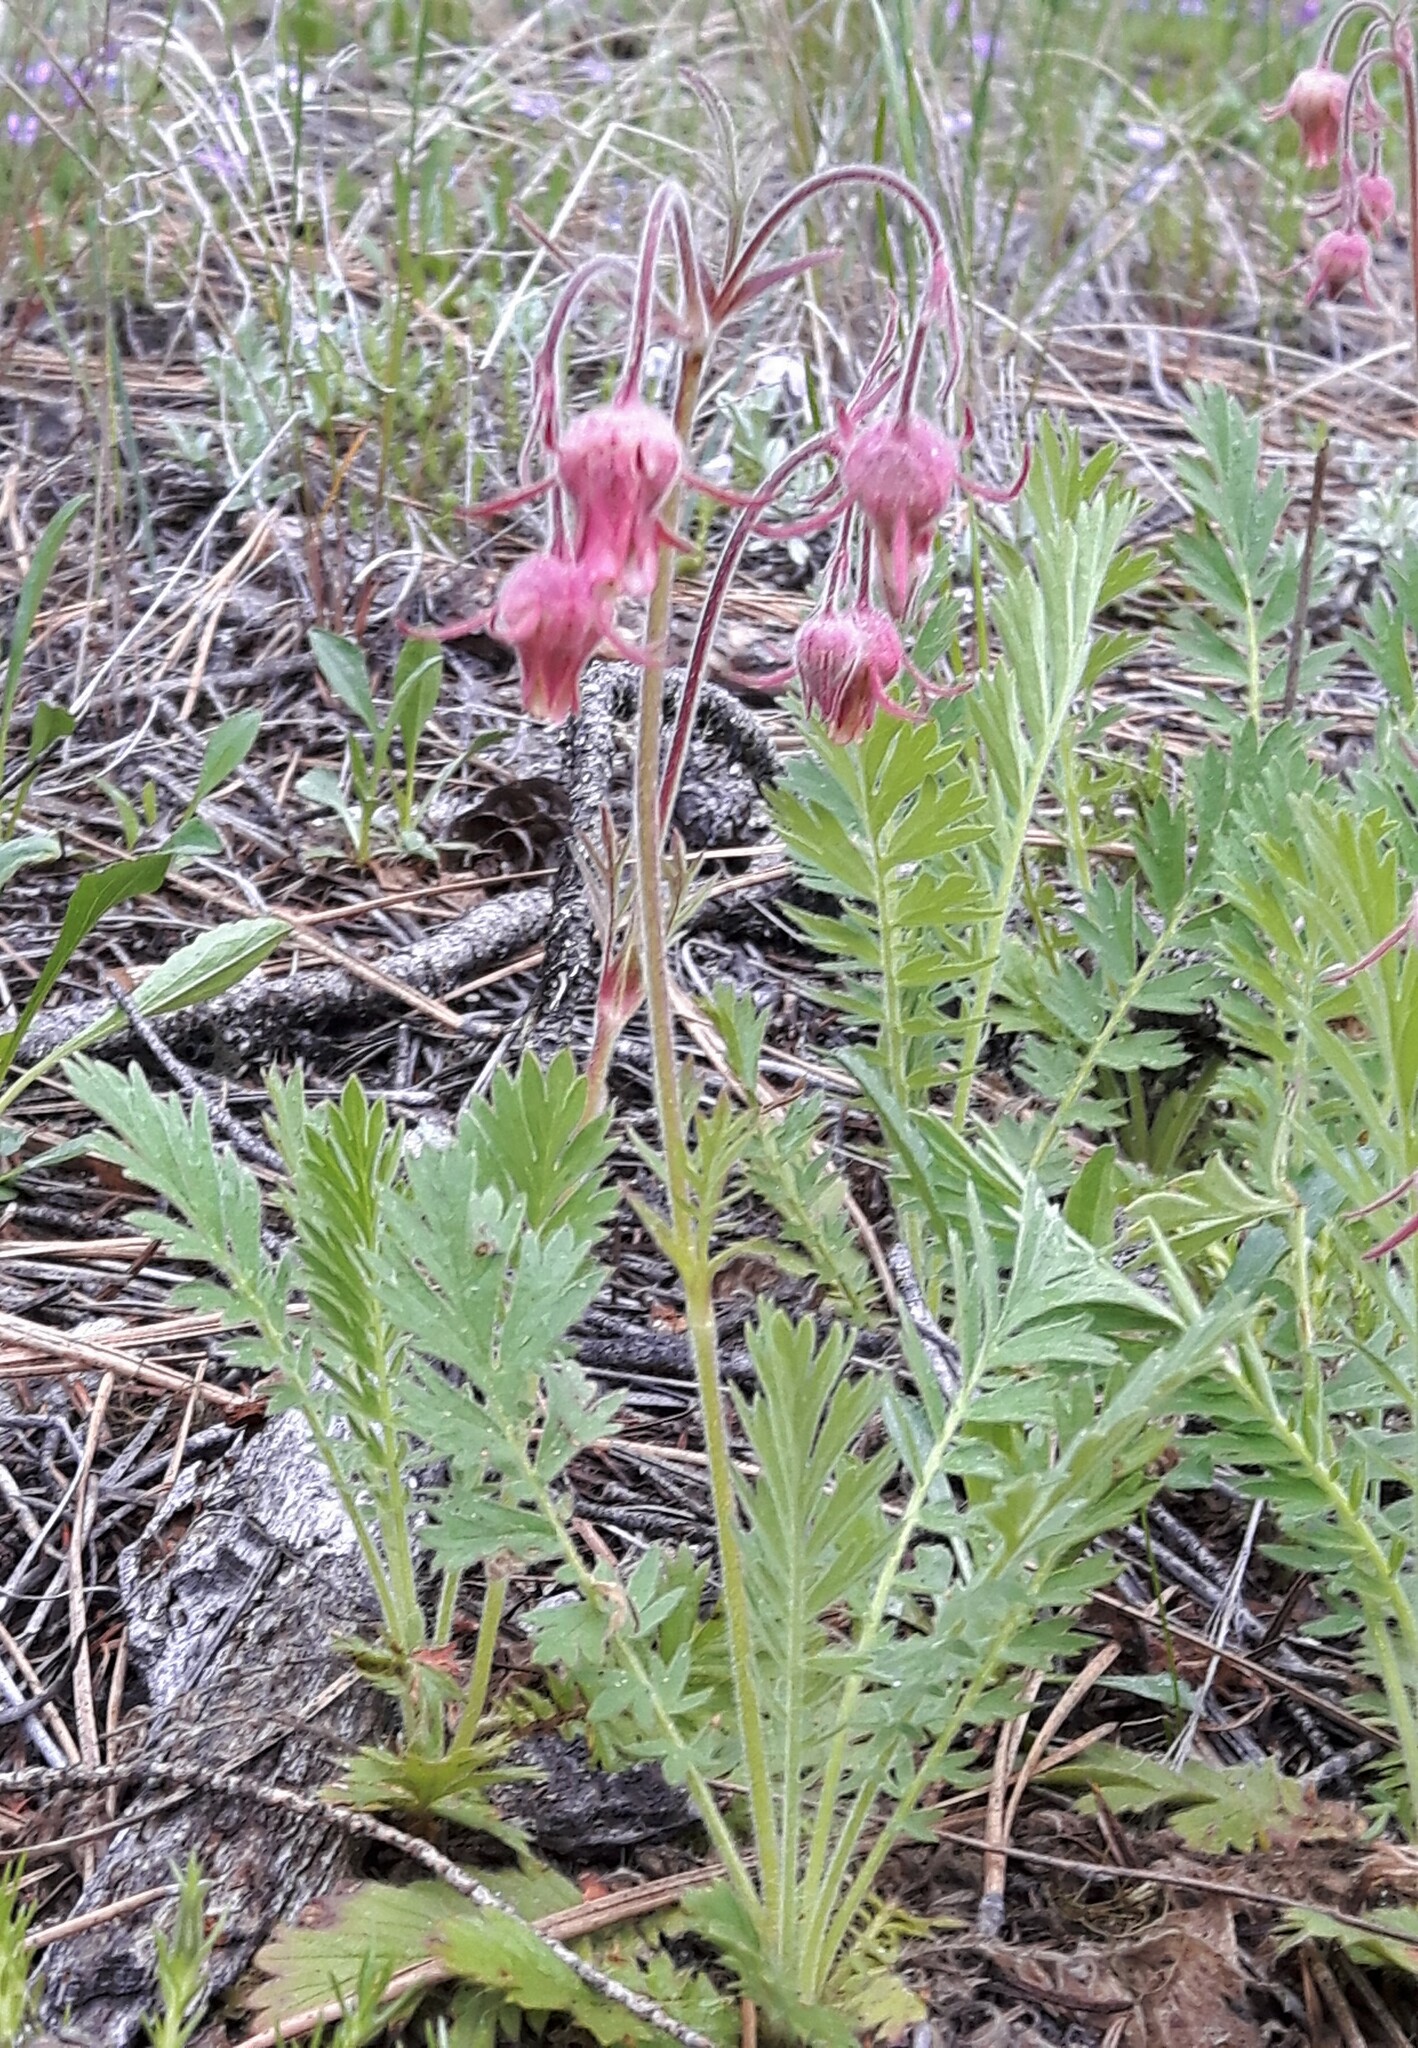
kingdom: Plantae
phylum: Tracheophyta
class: Magnoliopsida
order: Rosales
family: Rosaceae
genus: Geum
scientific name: Geum triflorum
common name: Old man's whiskers
